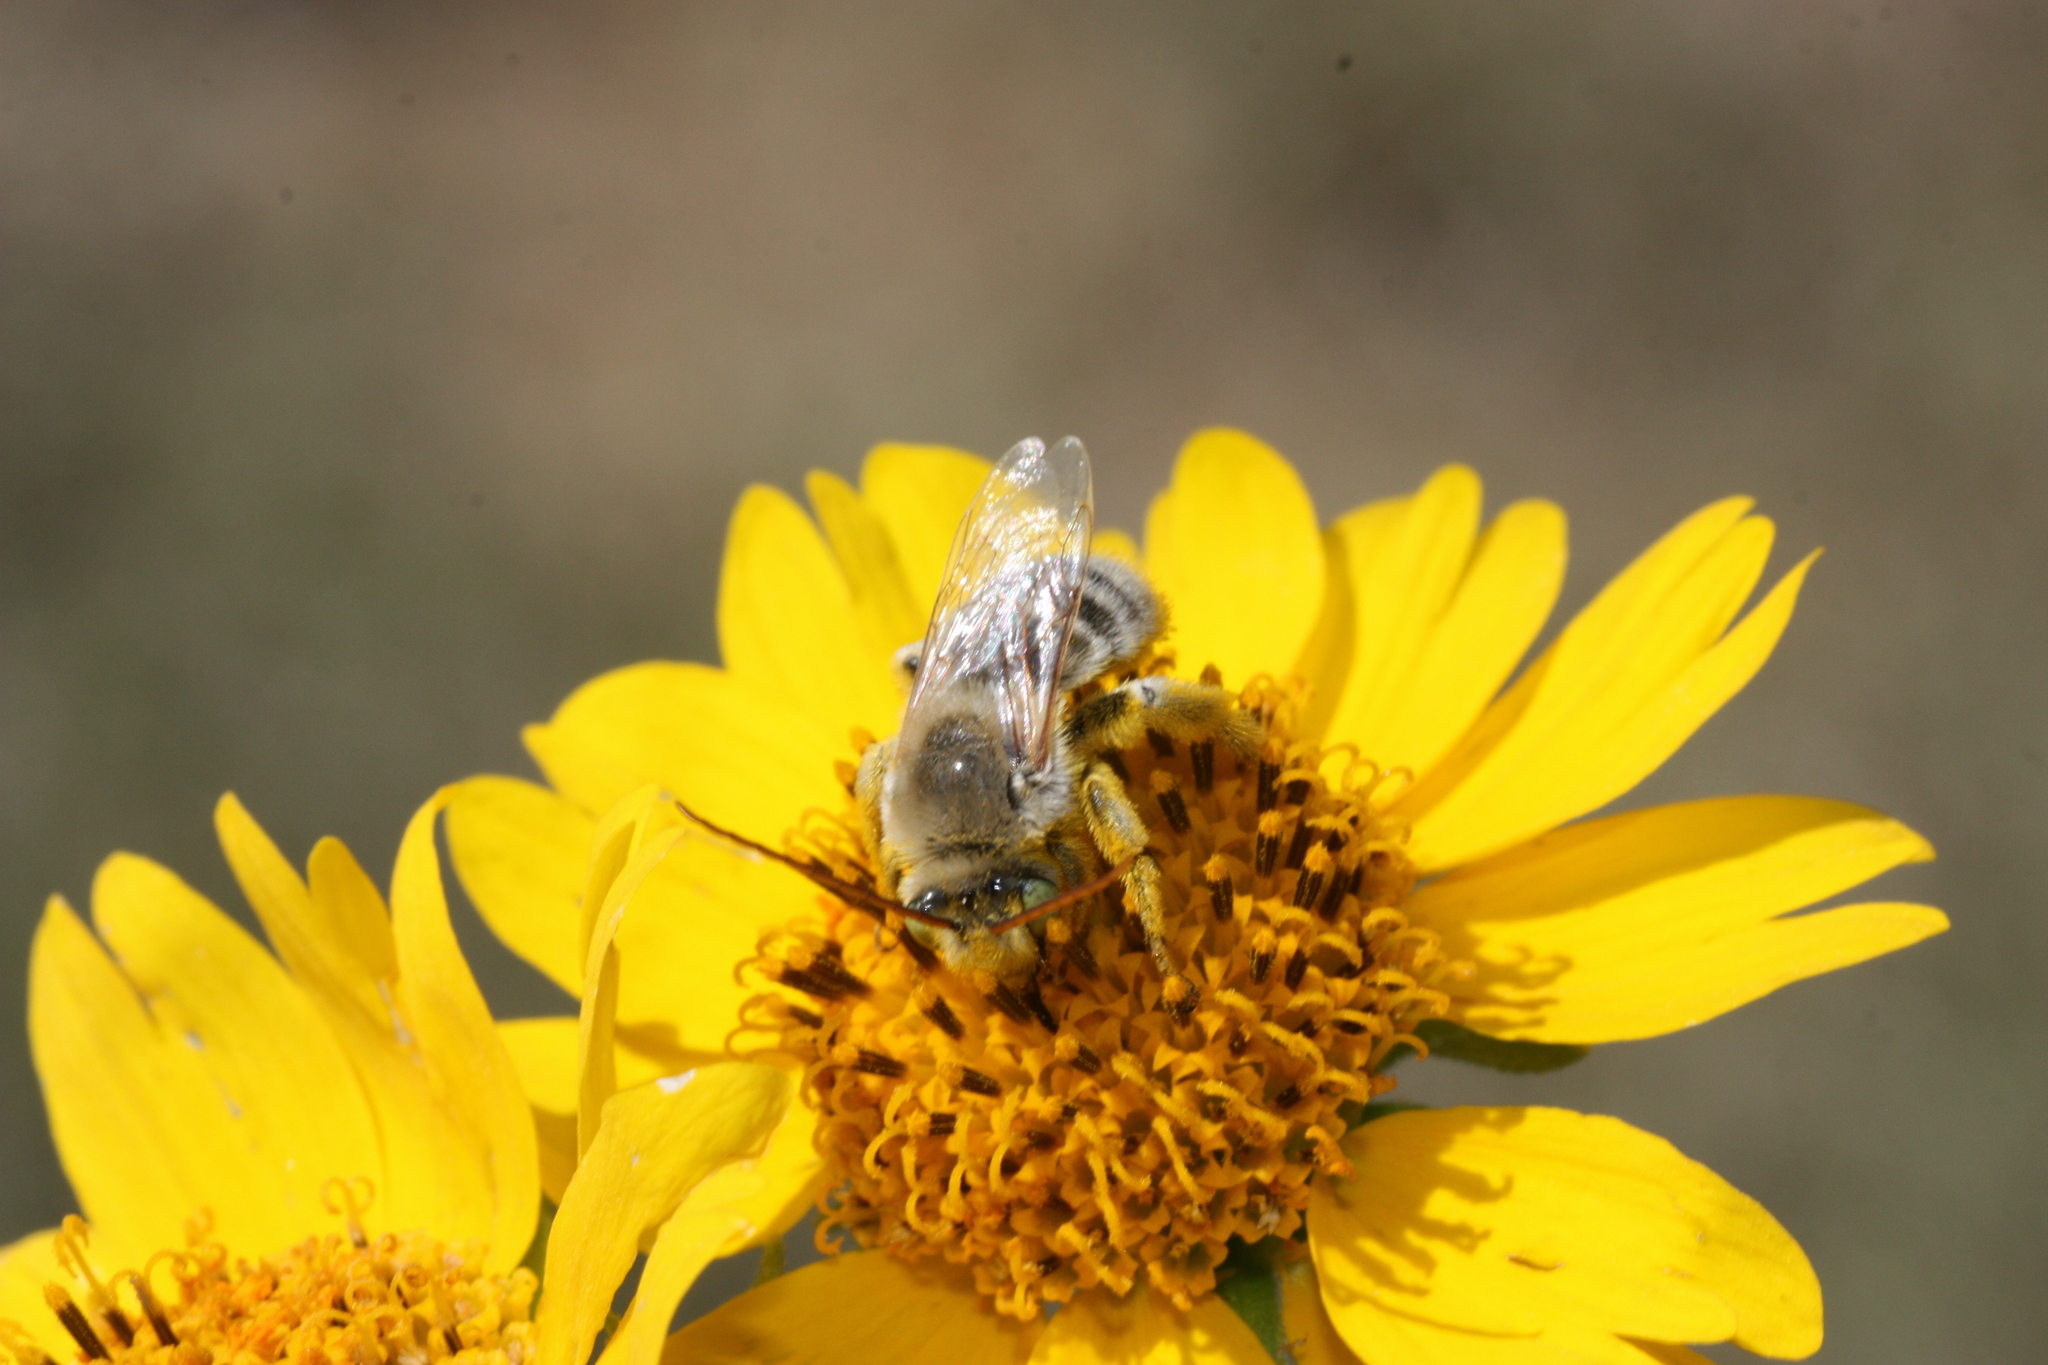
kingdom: Animalia
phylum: Arthropoda
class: Insecta
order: Hymenoptera
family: Apidae
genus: Melissodes
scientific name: Melissodes
